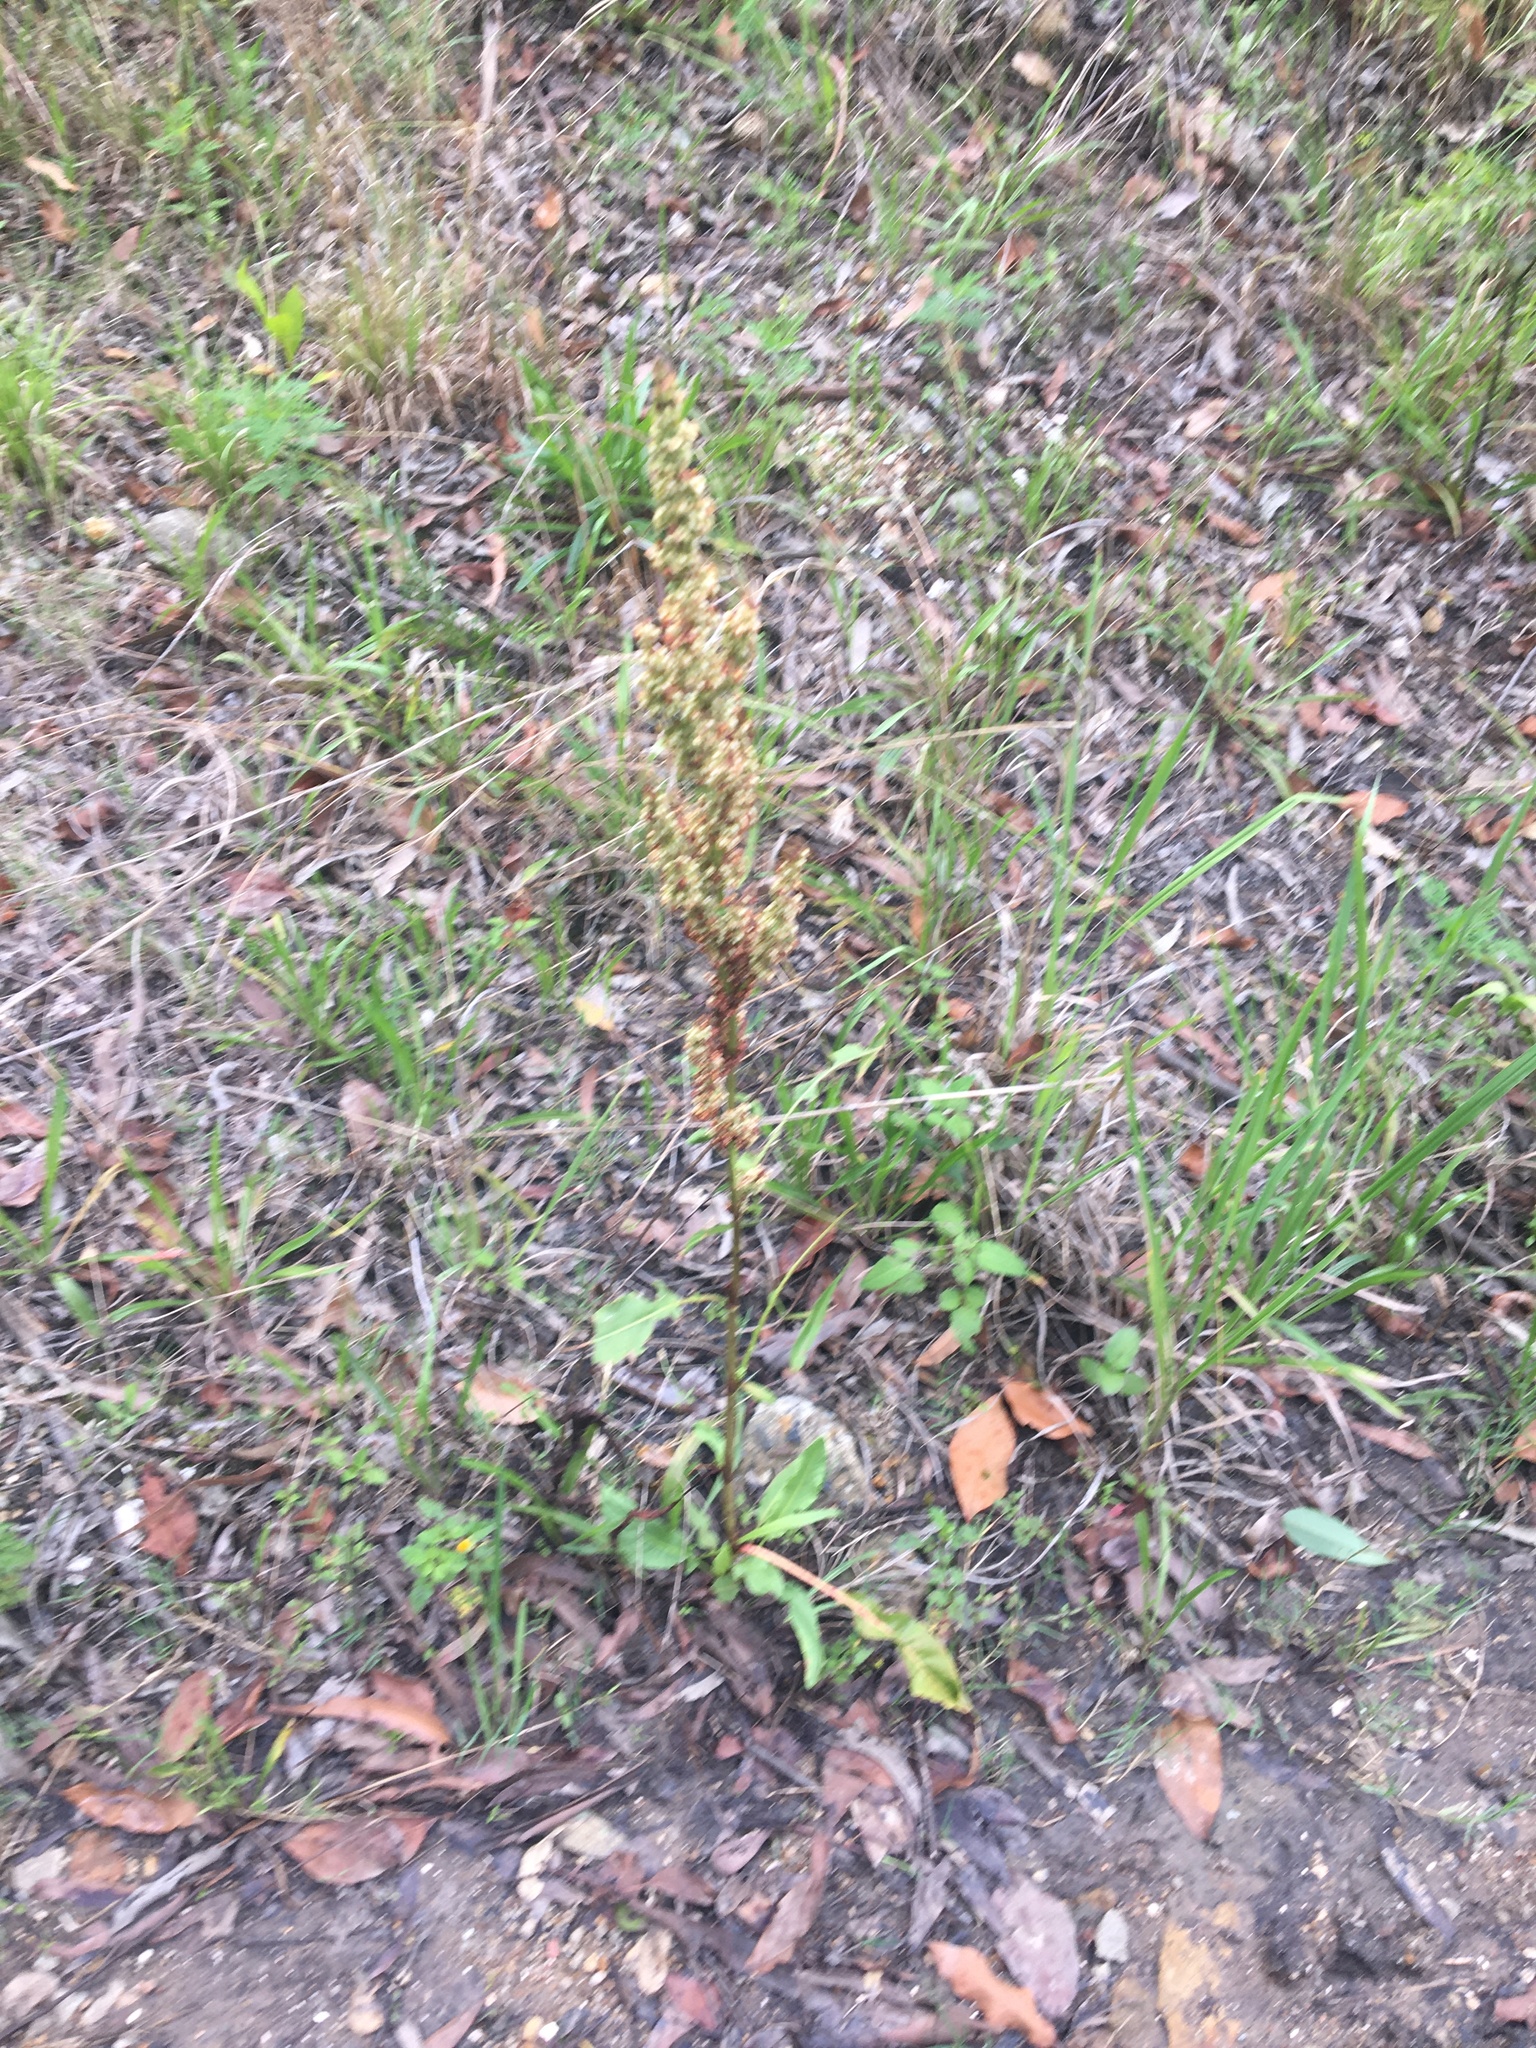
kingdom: Plantae
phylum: Tracheophyta
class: Magnoliopsida
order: Caryophyllales
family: Polygonaceae
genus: Rumex
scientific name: Rumex crispus
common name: Curled dock
